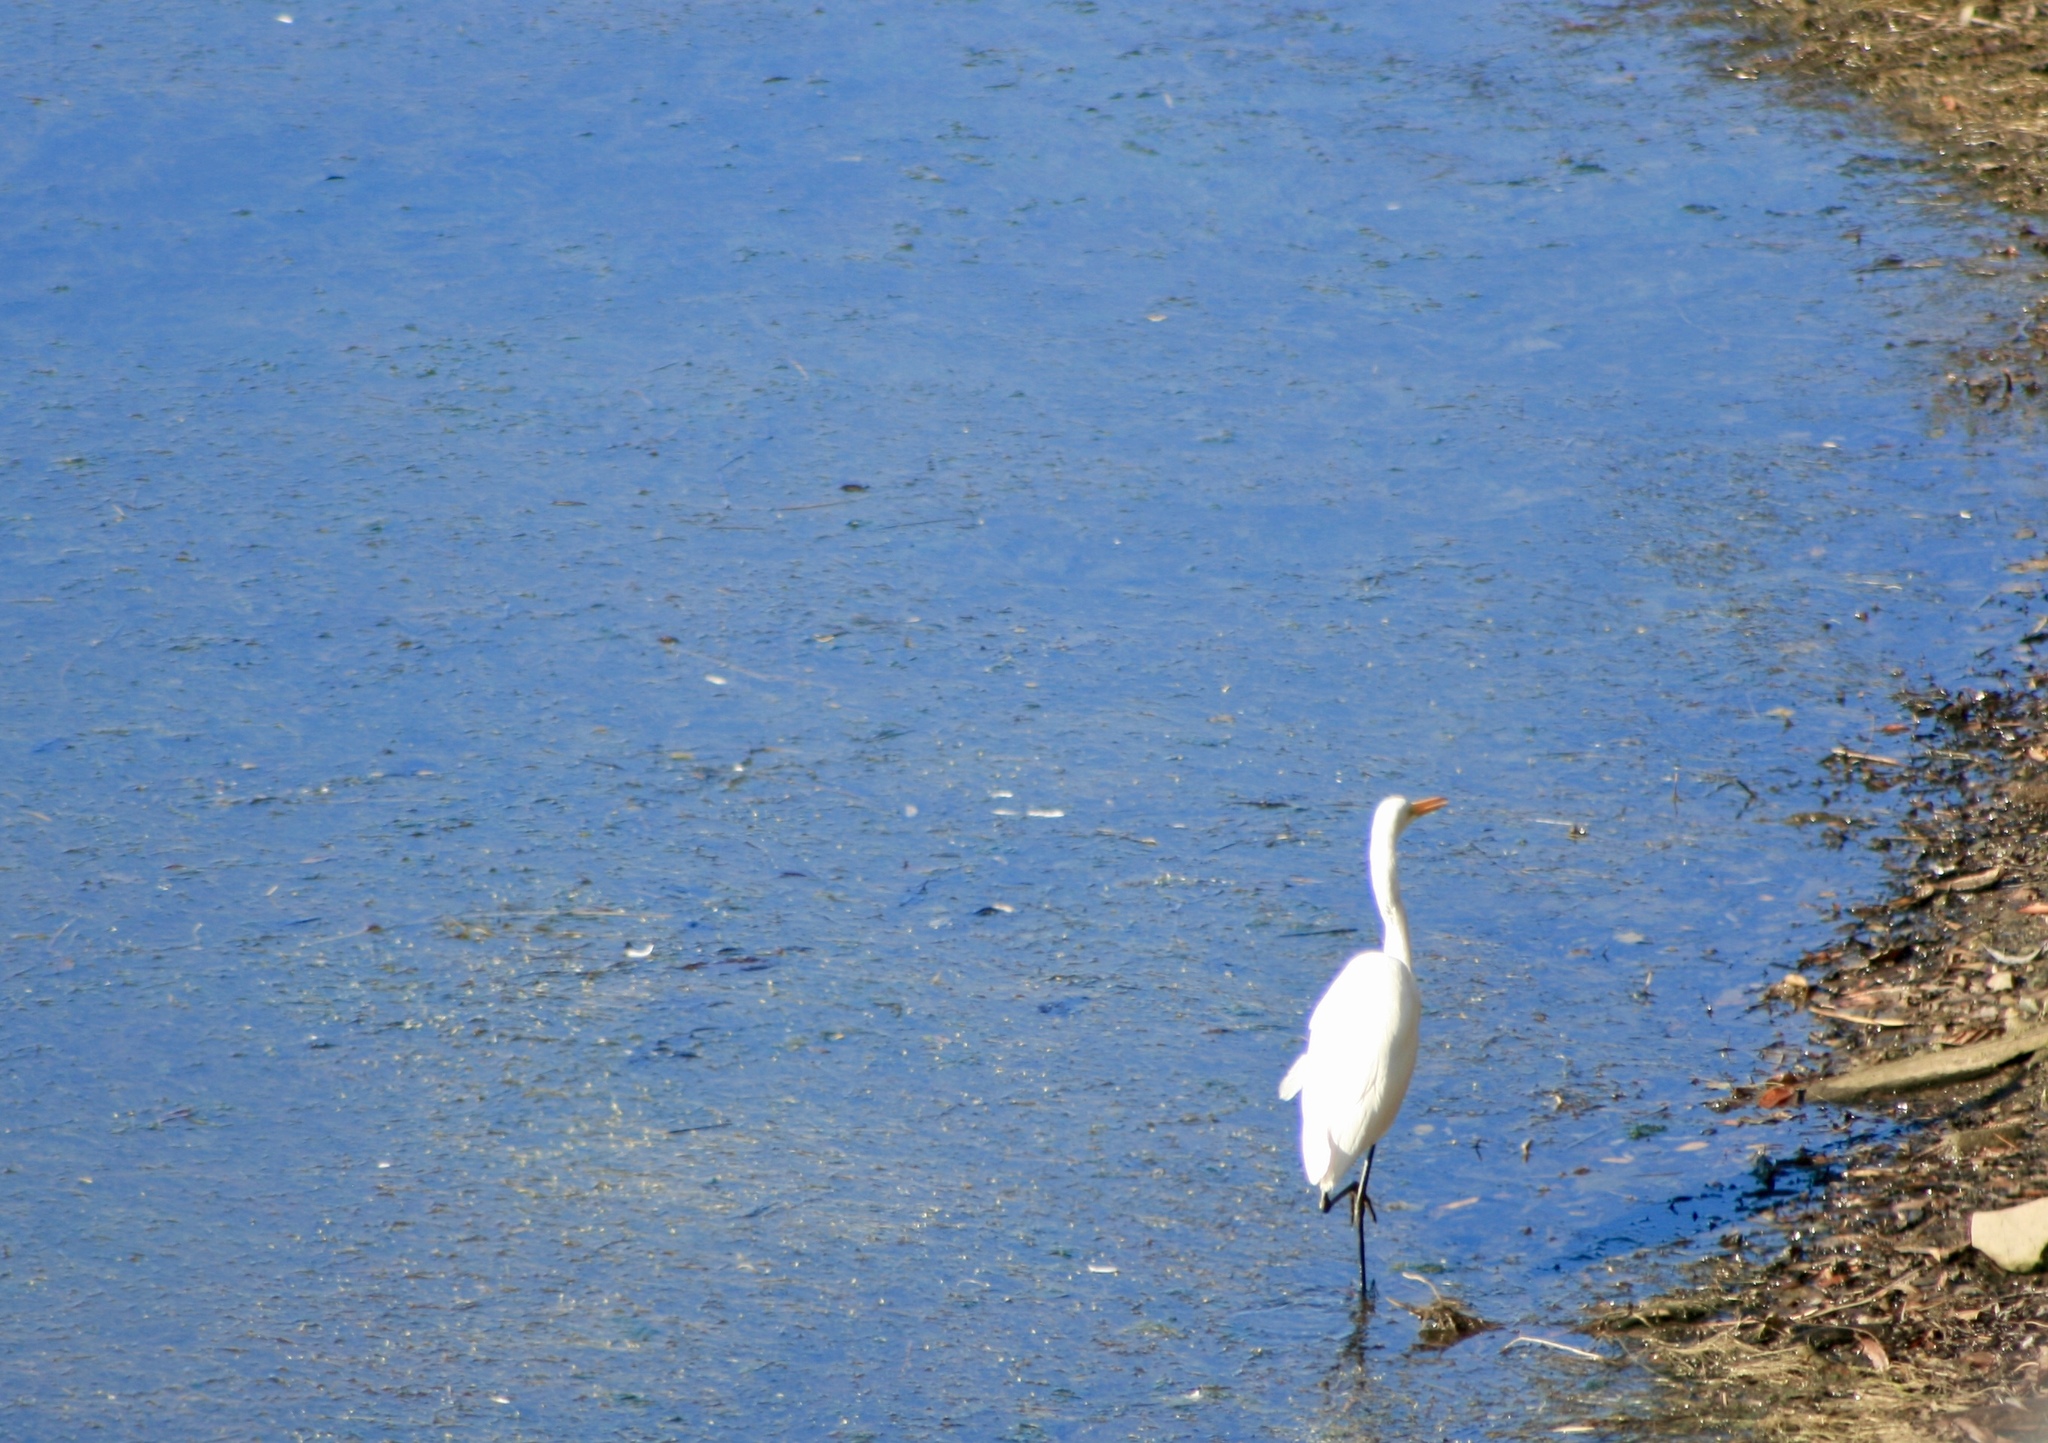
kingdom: Animalia
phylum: Chordata
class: Aves
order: Pelecaniformes
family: Ardeidae
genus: Ardea
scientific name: Ardea alba
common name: Great egret
